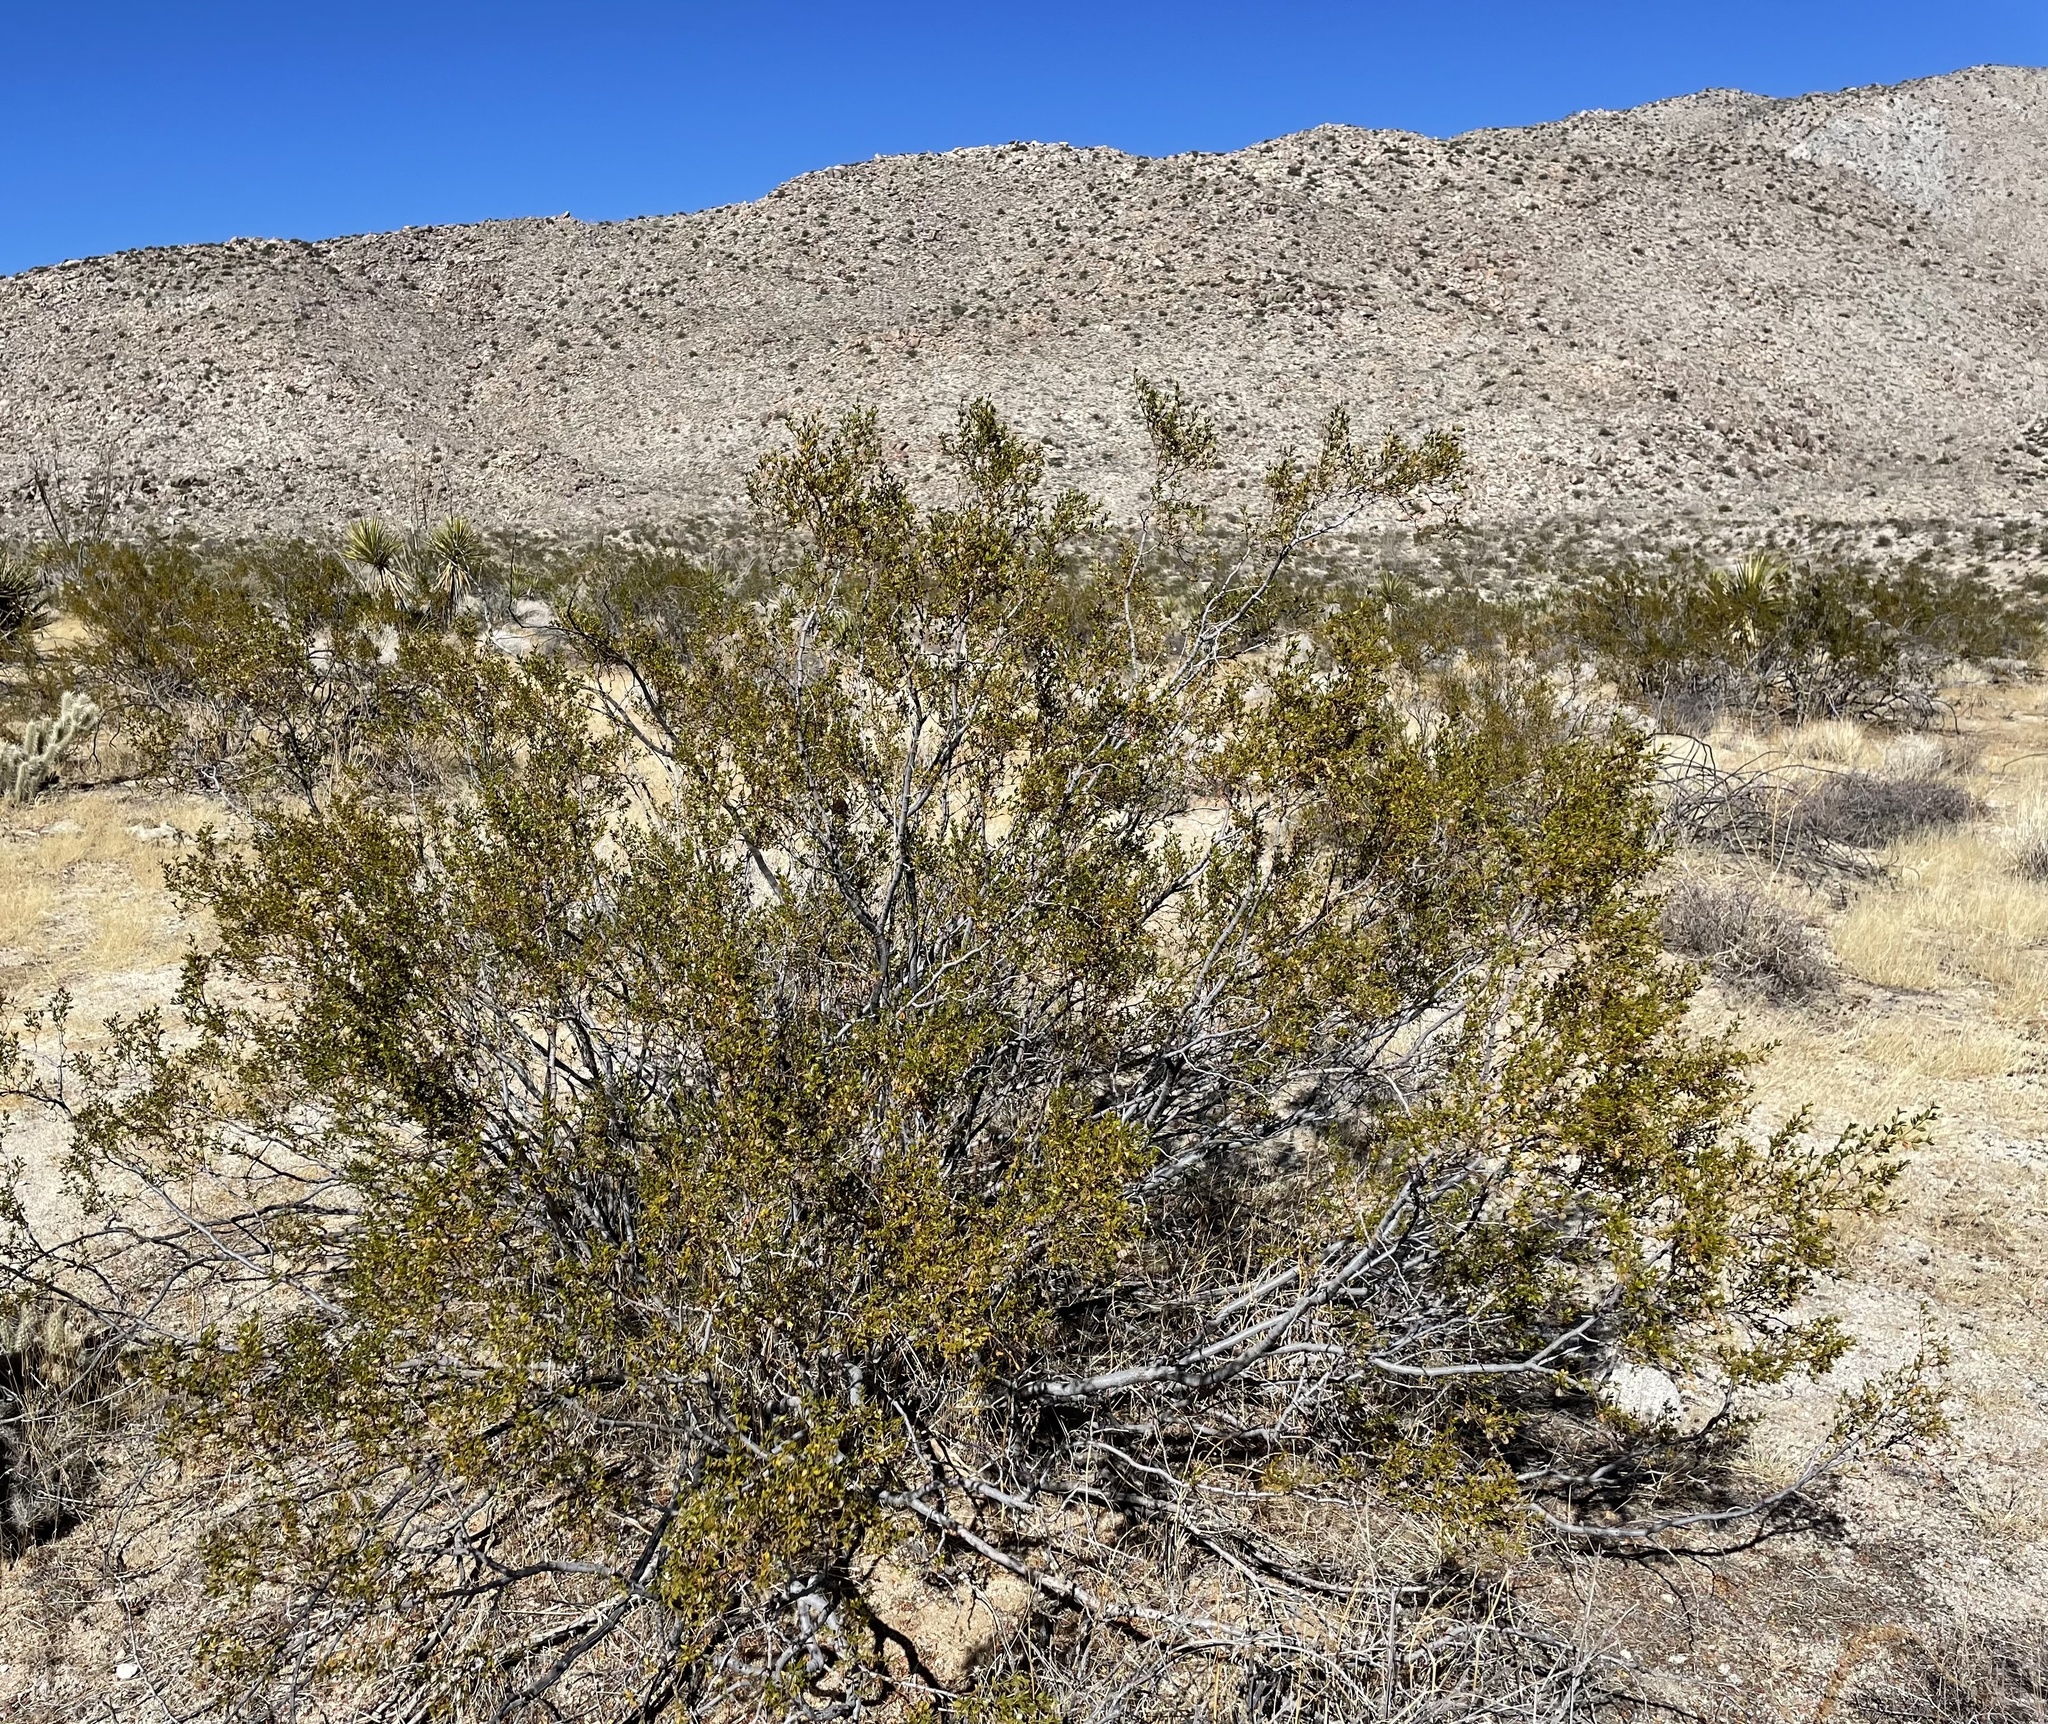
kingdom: Plantae
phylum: Tracheophyta
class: Magnoliopsida
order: Zygophyllales
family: Zygophyllaceae
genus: Larrea
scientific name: Larrea tridentata
